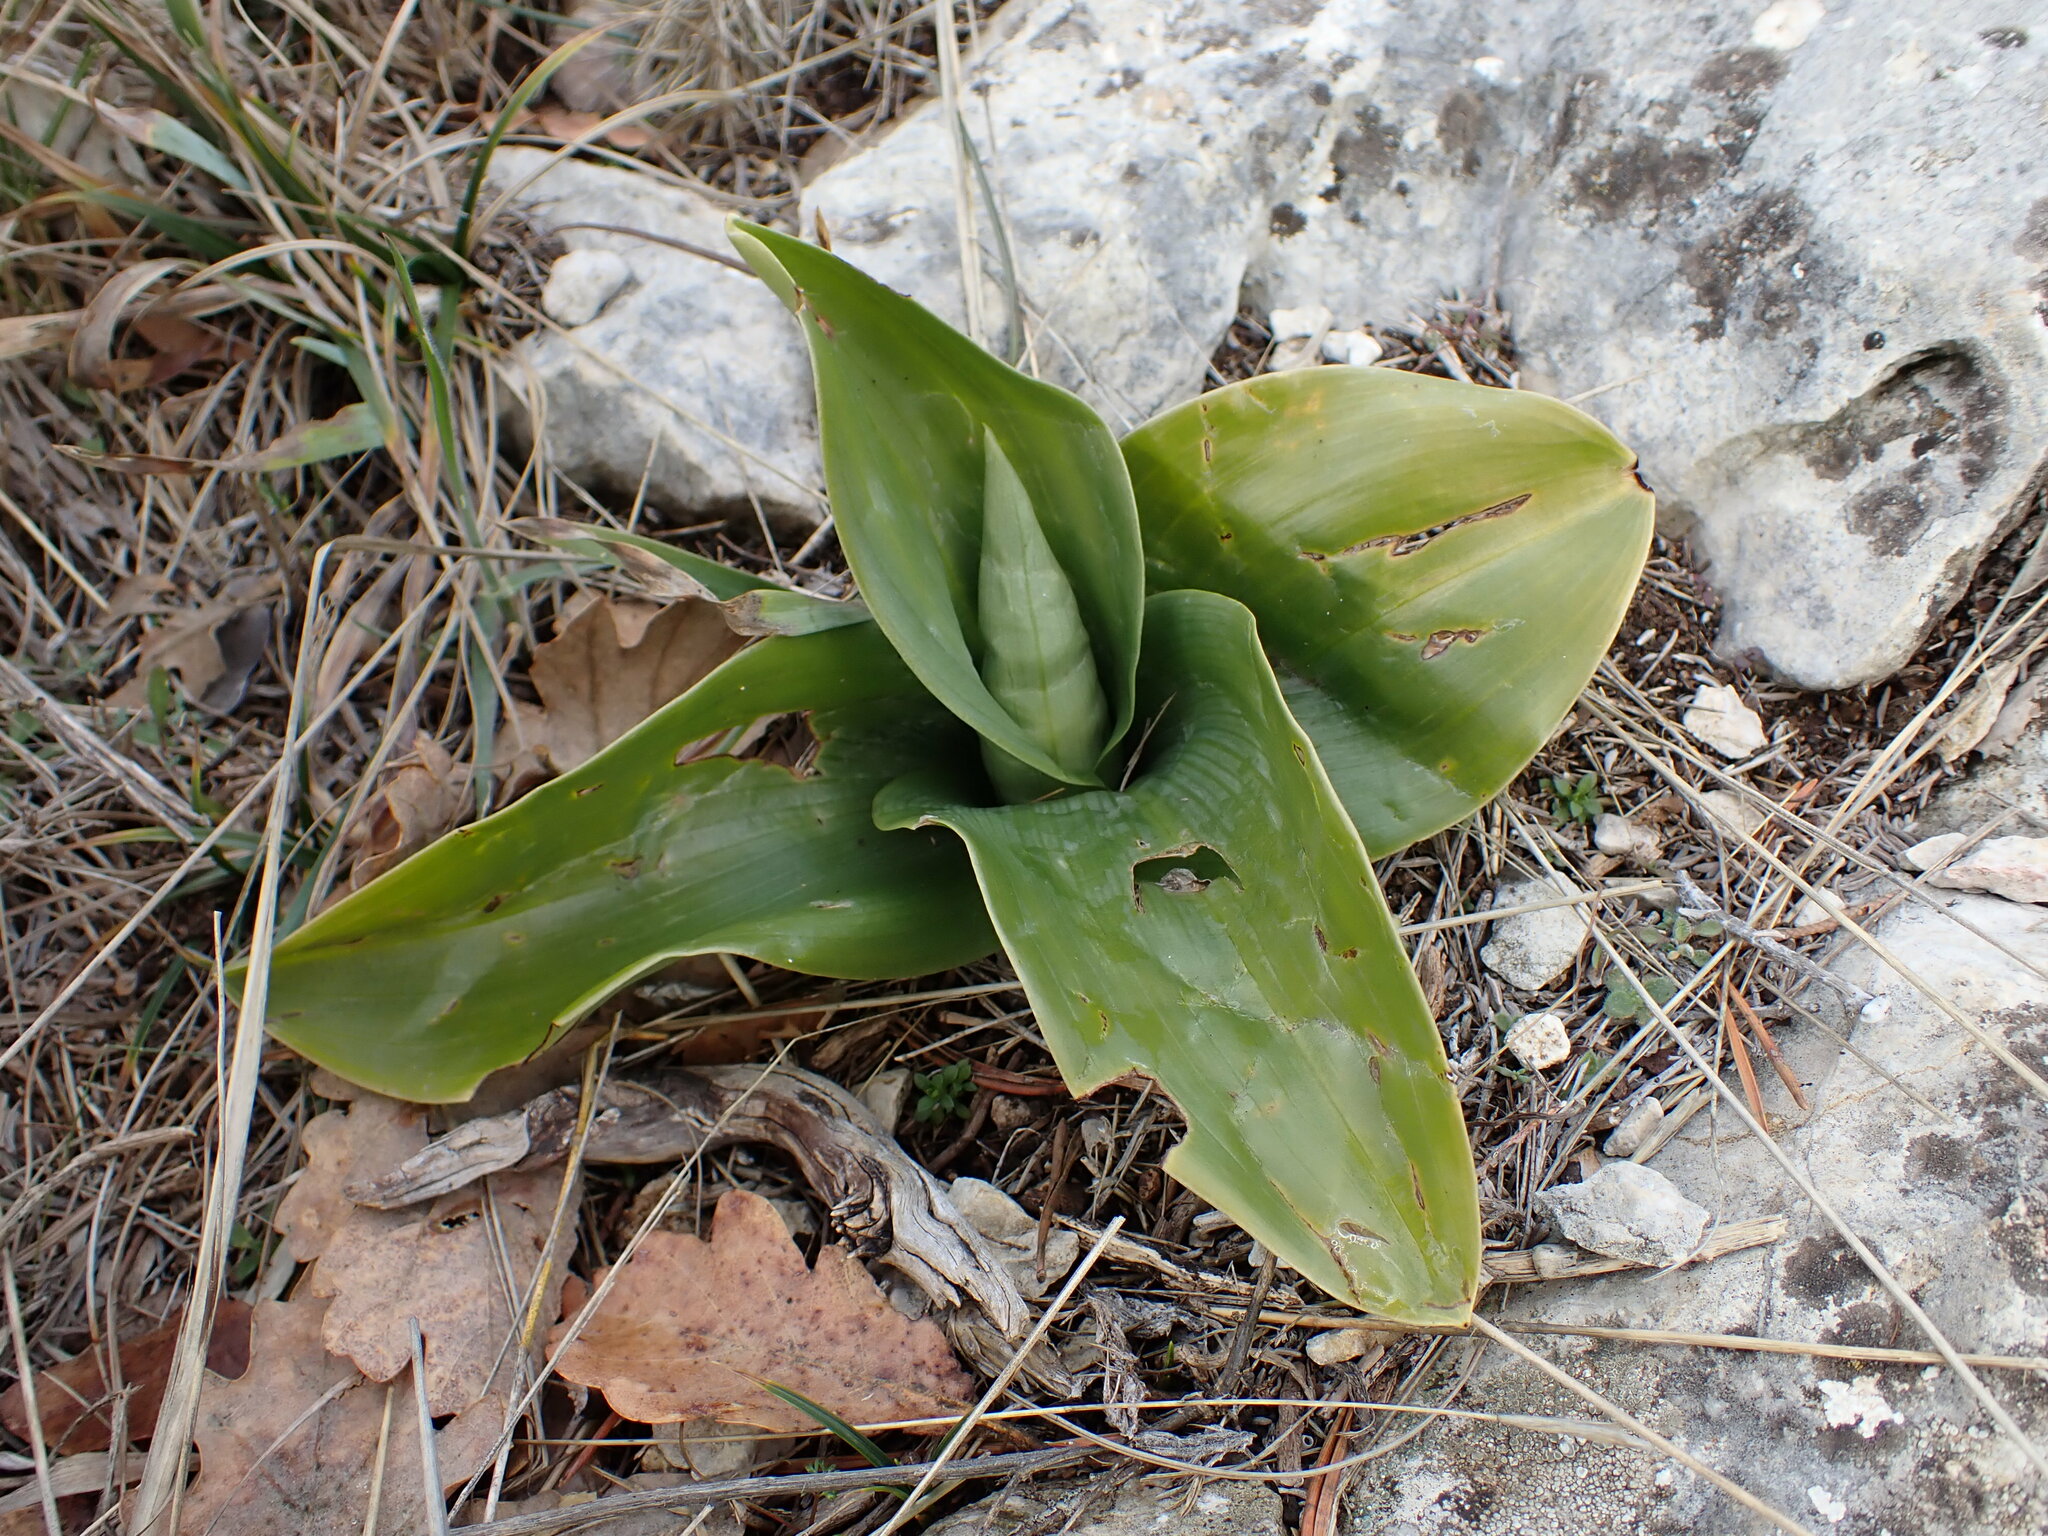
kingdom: Plantae
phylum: Tracheophyta
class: Liliopsida
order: Asparagales
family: Orchidaceae
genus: Himantoglossum
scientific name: Himantoglossum robertianum
